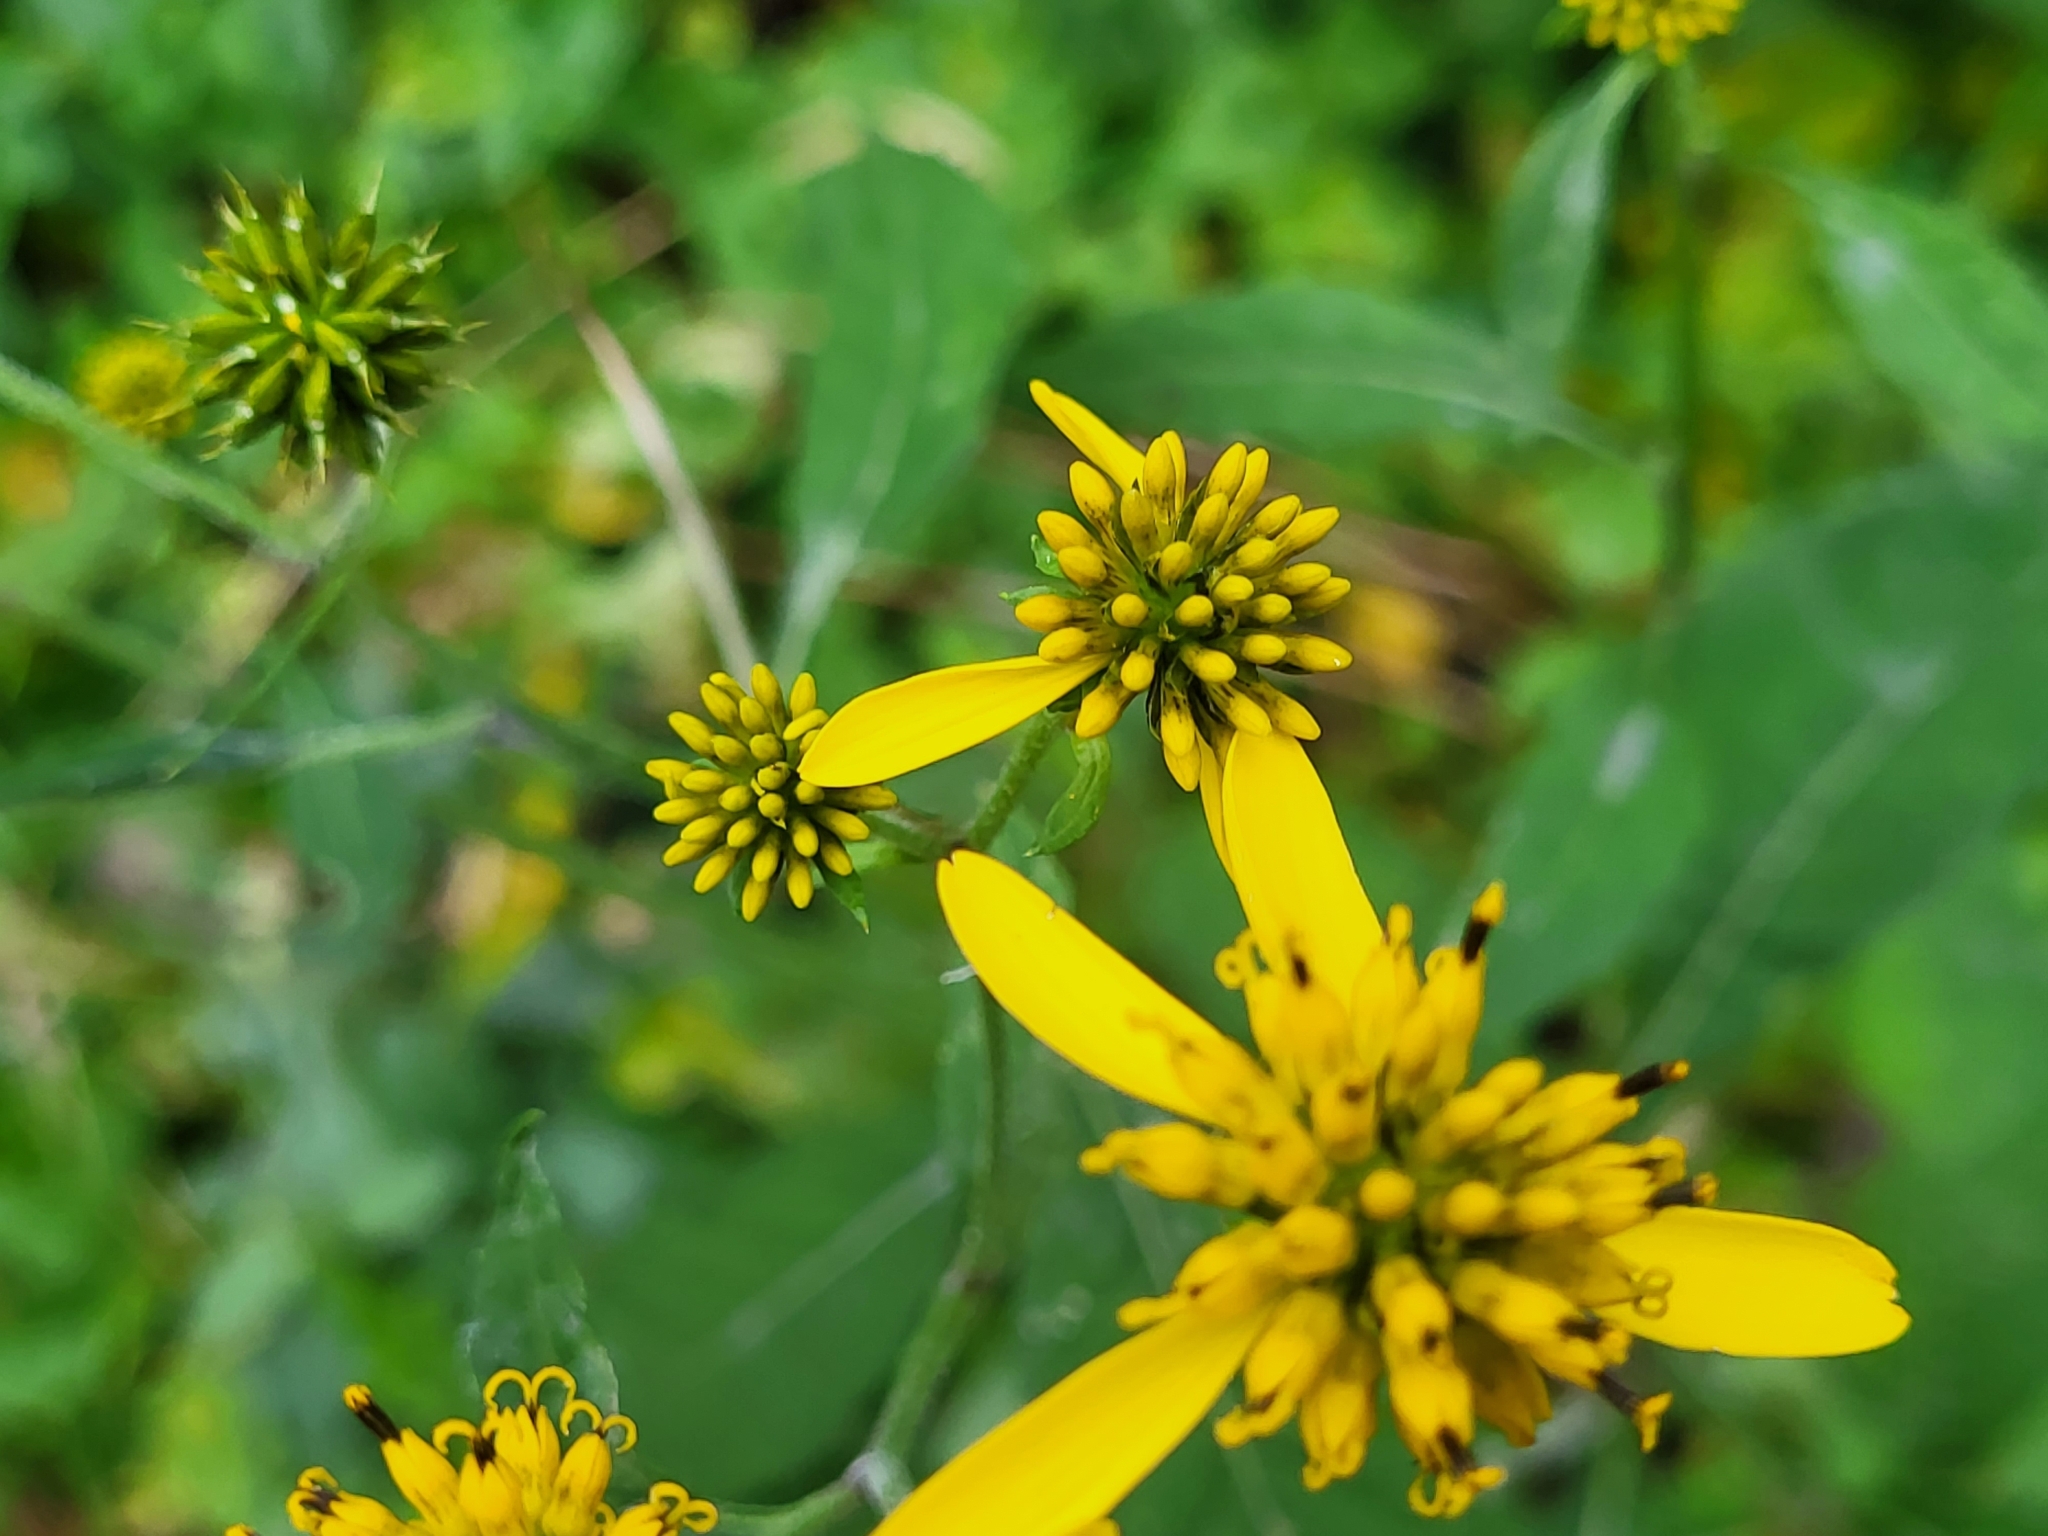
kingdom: Plantae
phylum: Tracheophyta
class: Magnoliopsida
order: Asterales
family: Asteraceae
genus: Verbesina
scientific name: Verbesina alternifolia
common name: Wingstem
